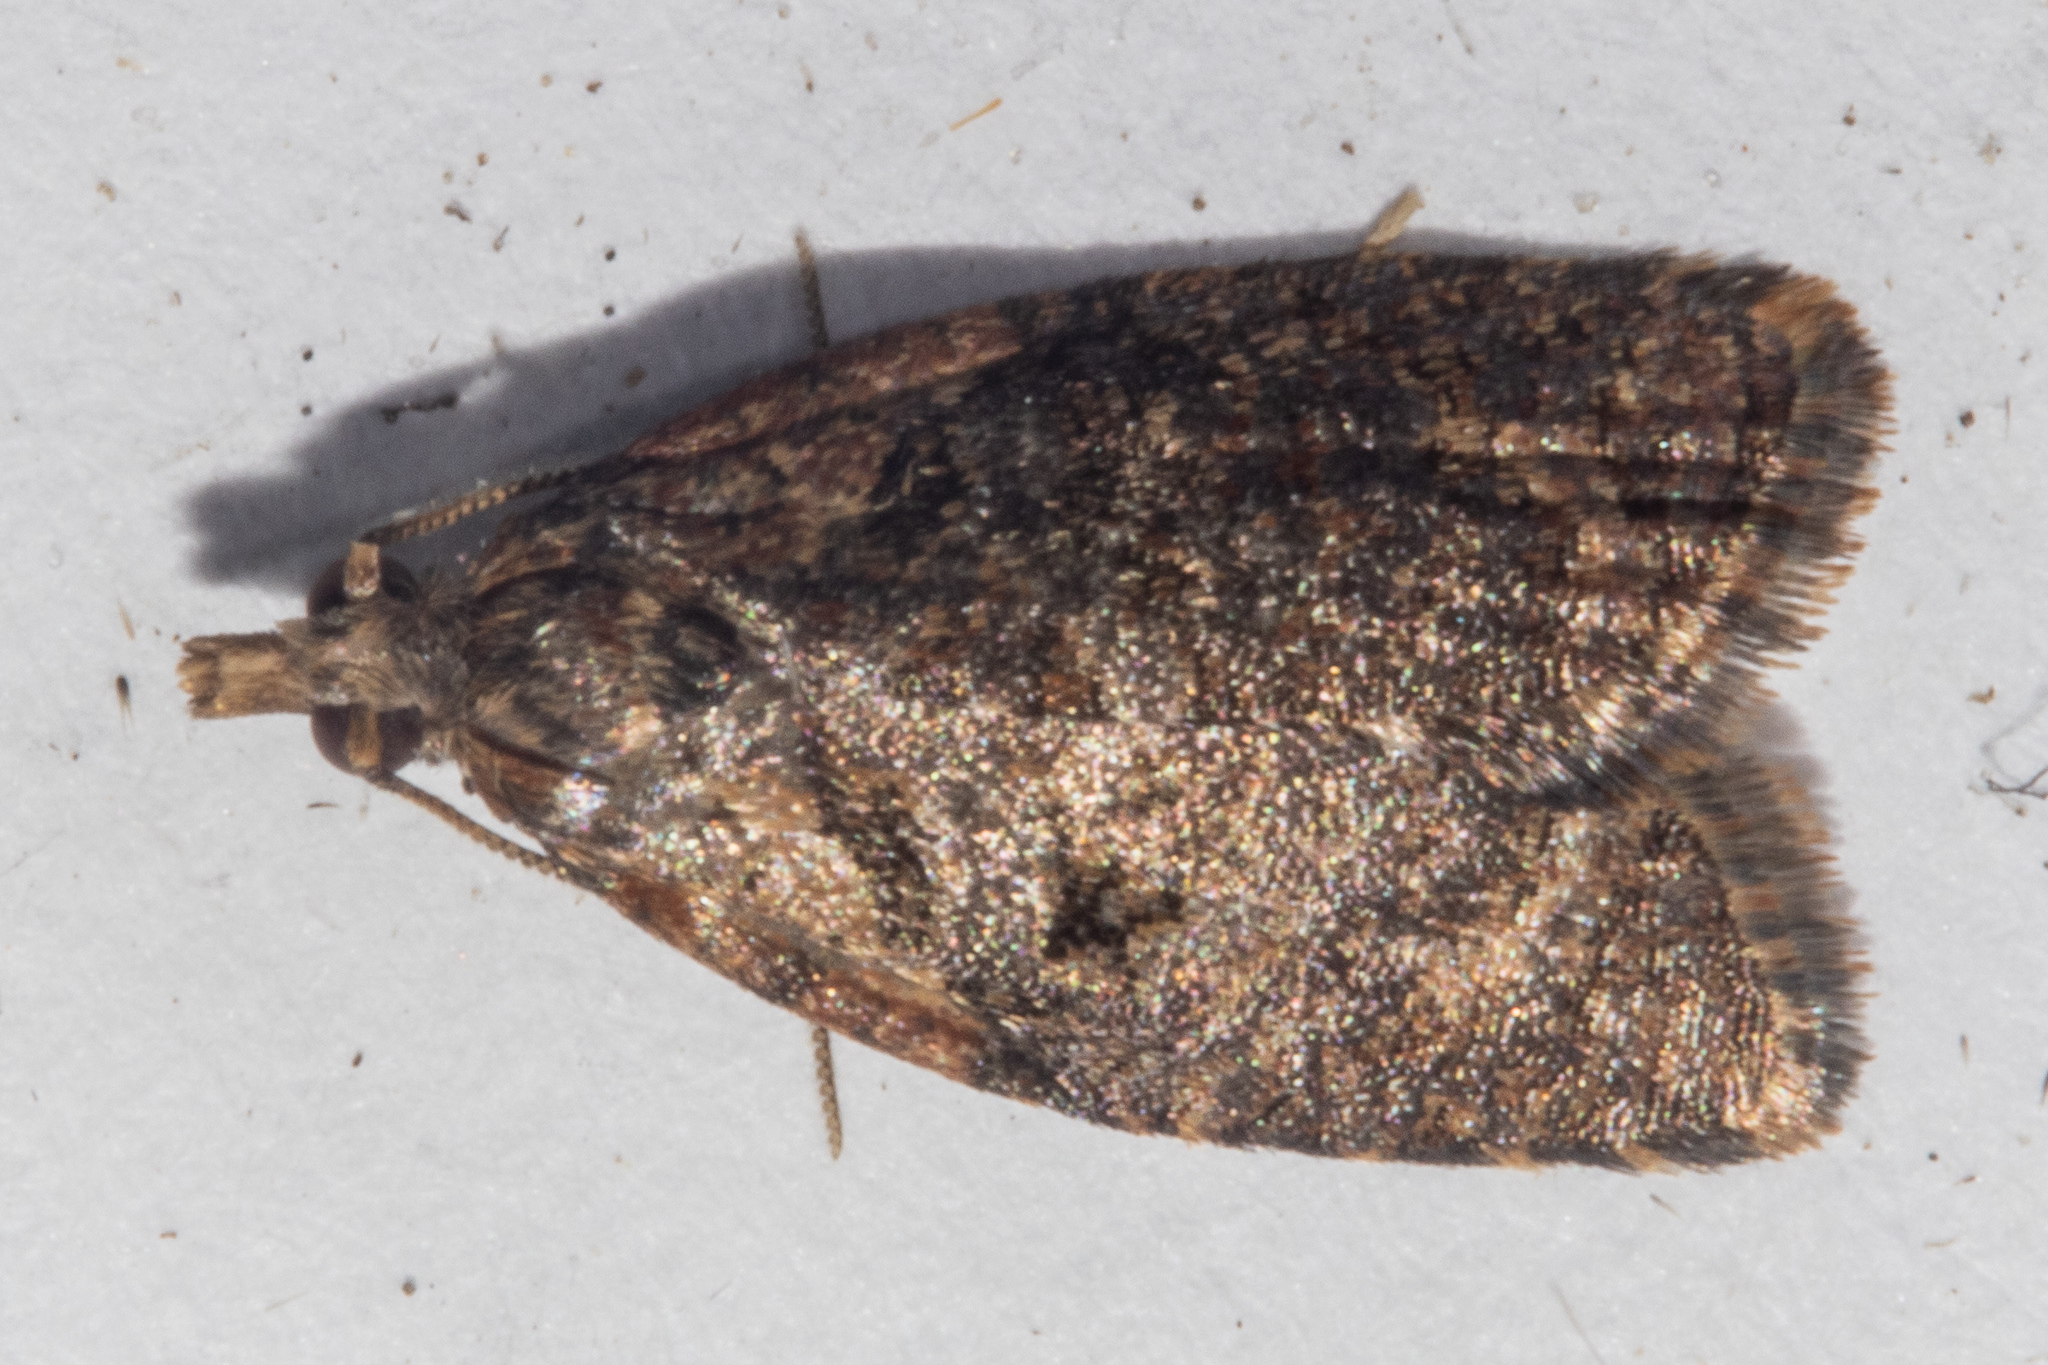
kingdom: Animalia
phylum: Arthropoda
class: Insecta
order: Lepidoptera
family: Tortricidae
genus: Capua
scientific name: Capua intractana
